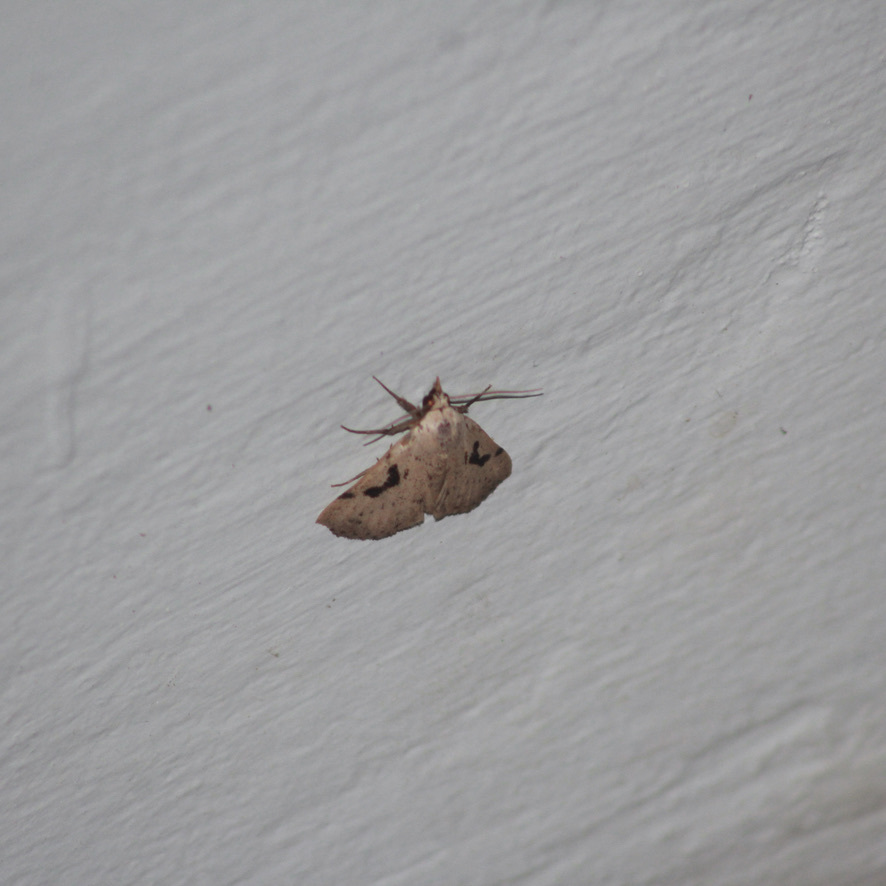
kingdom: Animalia
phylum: Arthropoda
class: Insecta
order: Lepidoptera
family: Erebidae
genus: Acanthermia
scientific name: Acanthermia concatenalis
